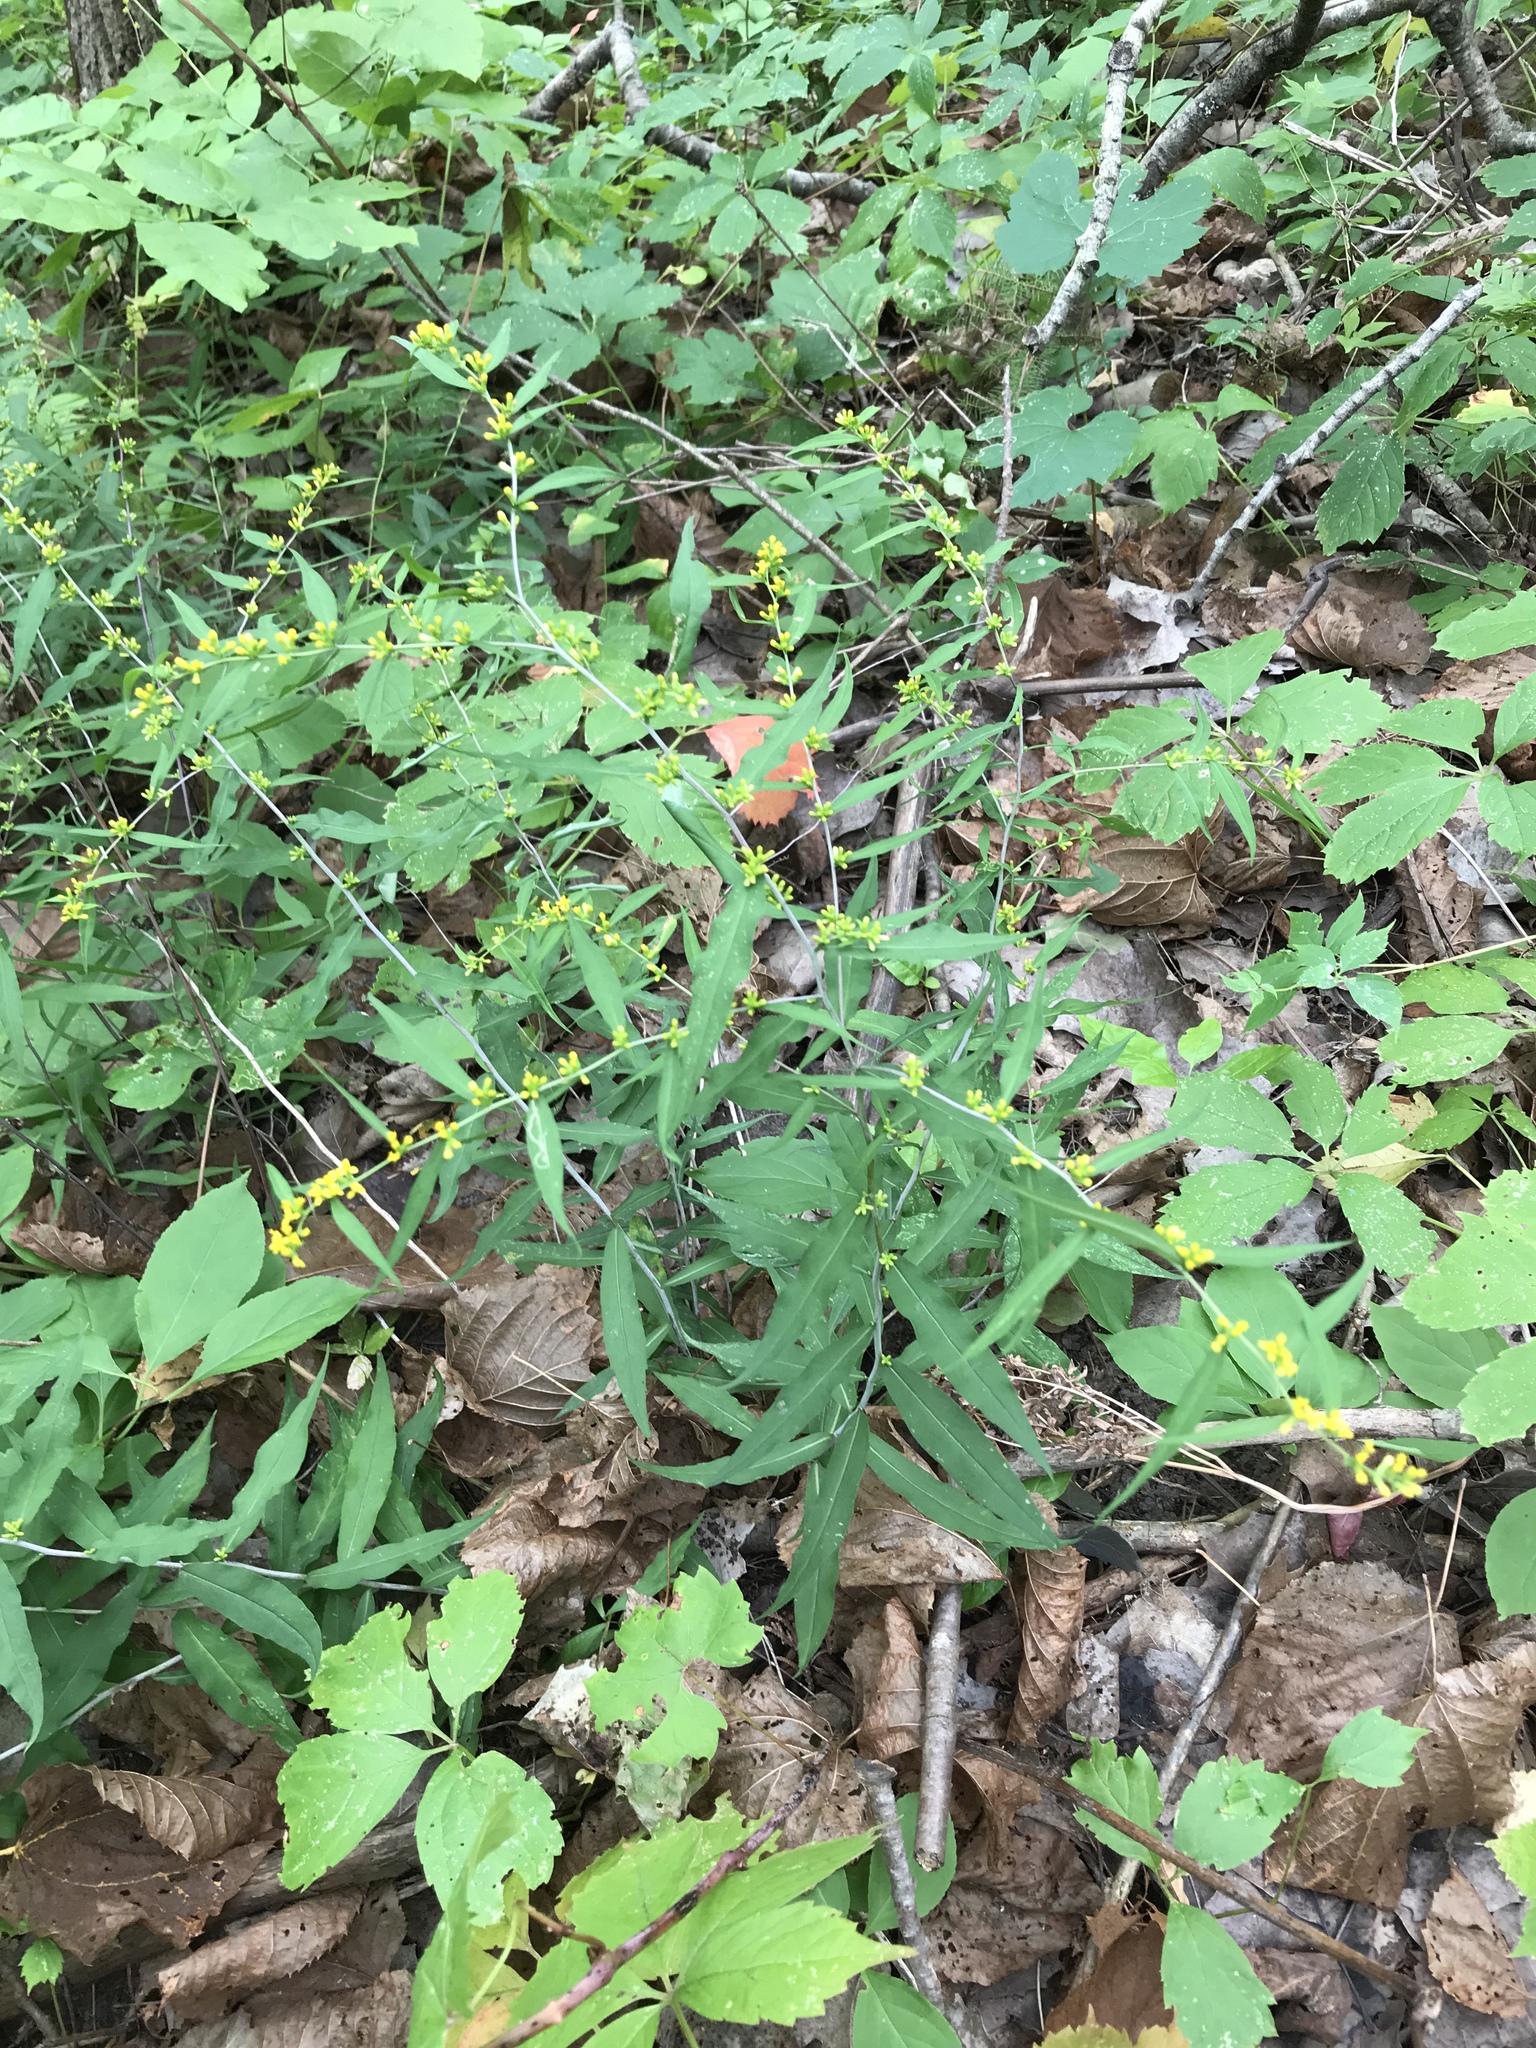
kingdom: Plantae
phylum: Tracheophyta
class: Magnoliopsida
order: Asterales
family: Asteraceae
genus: Solidago
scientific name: Solidago caesia
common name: Woodland goldenrod
